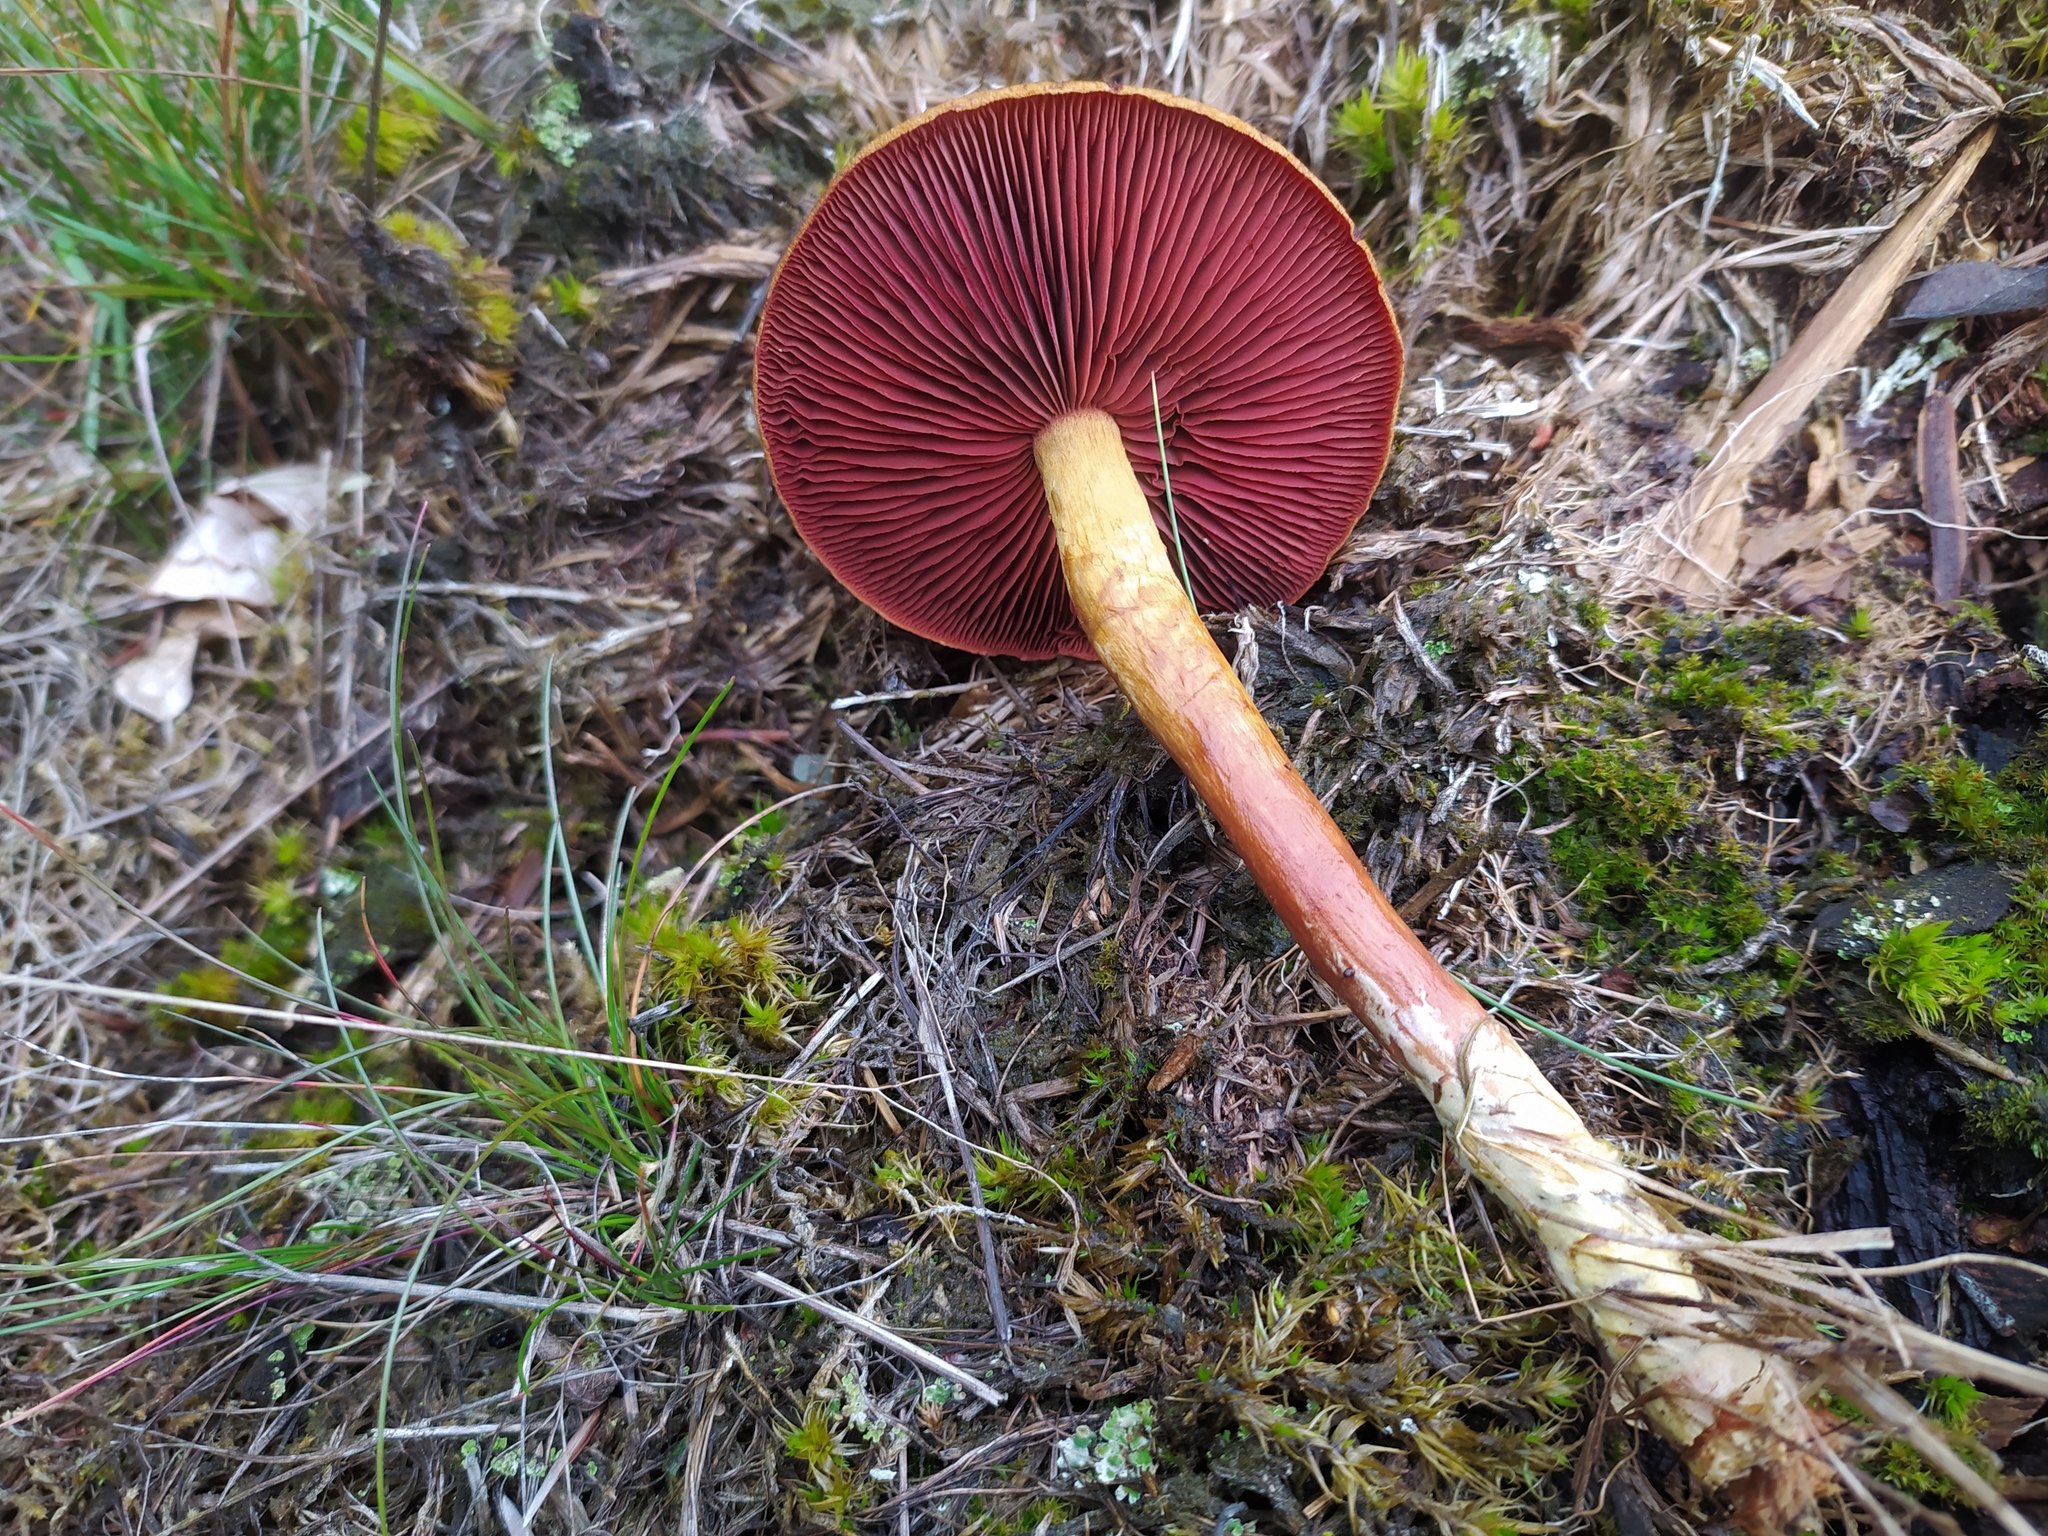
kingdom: Fungi
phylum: Basidiomycota
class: Agaricomycetes
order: Agaricales
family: Cortinariaceae
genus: Cortinarius
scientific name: Cortinarius semisanguineus
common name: Surprise webcap
